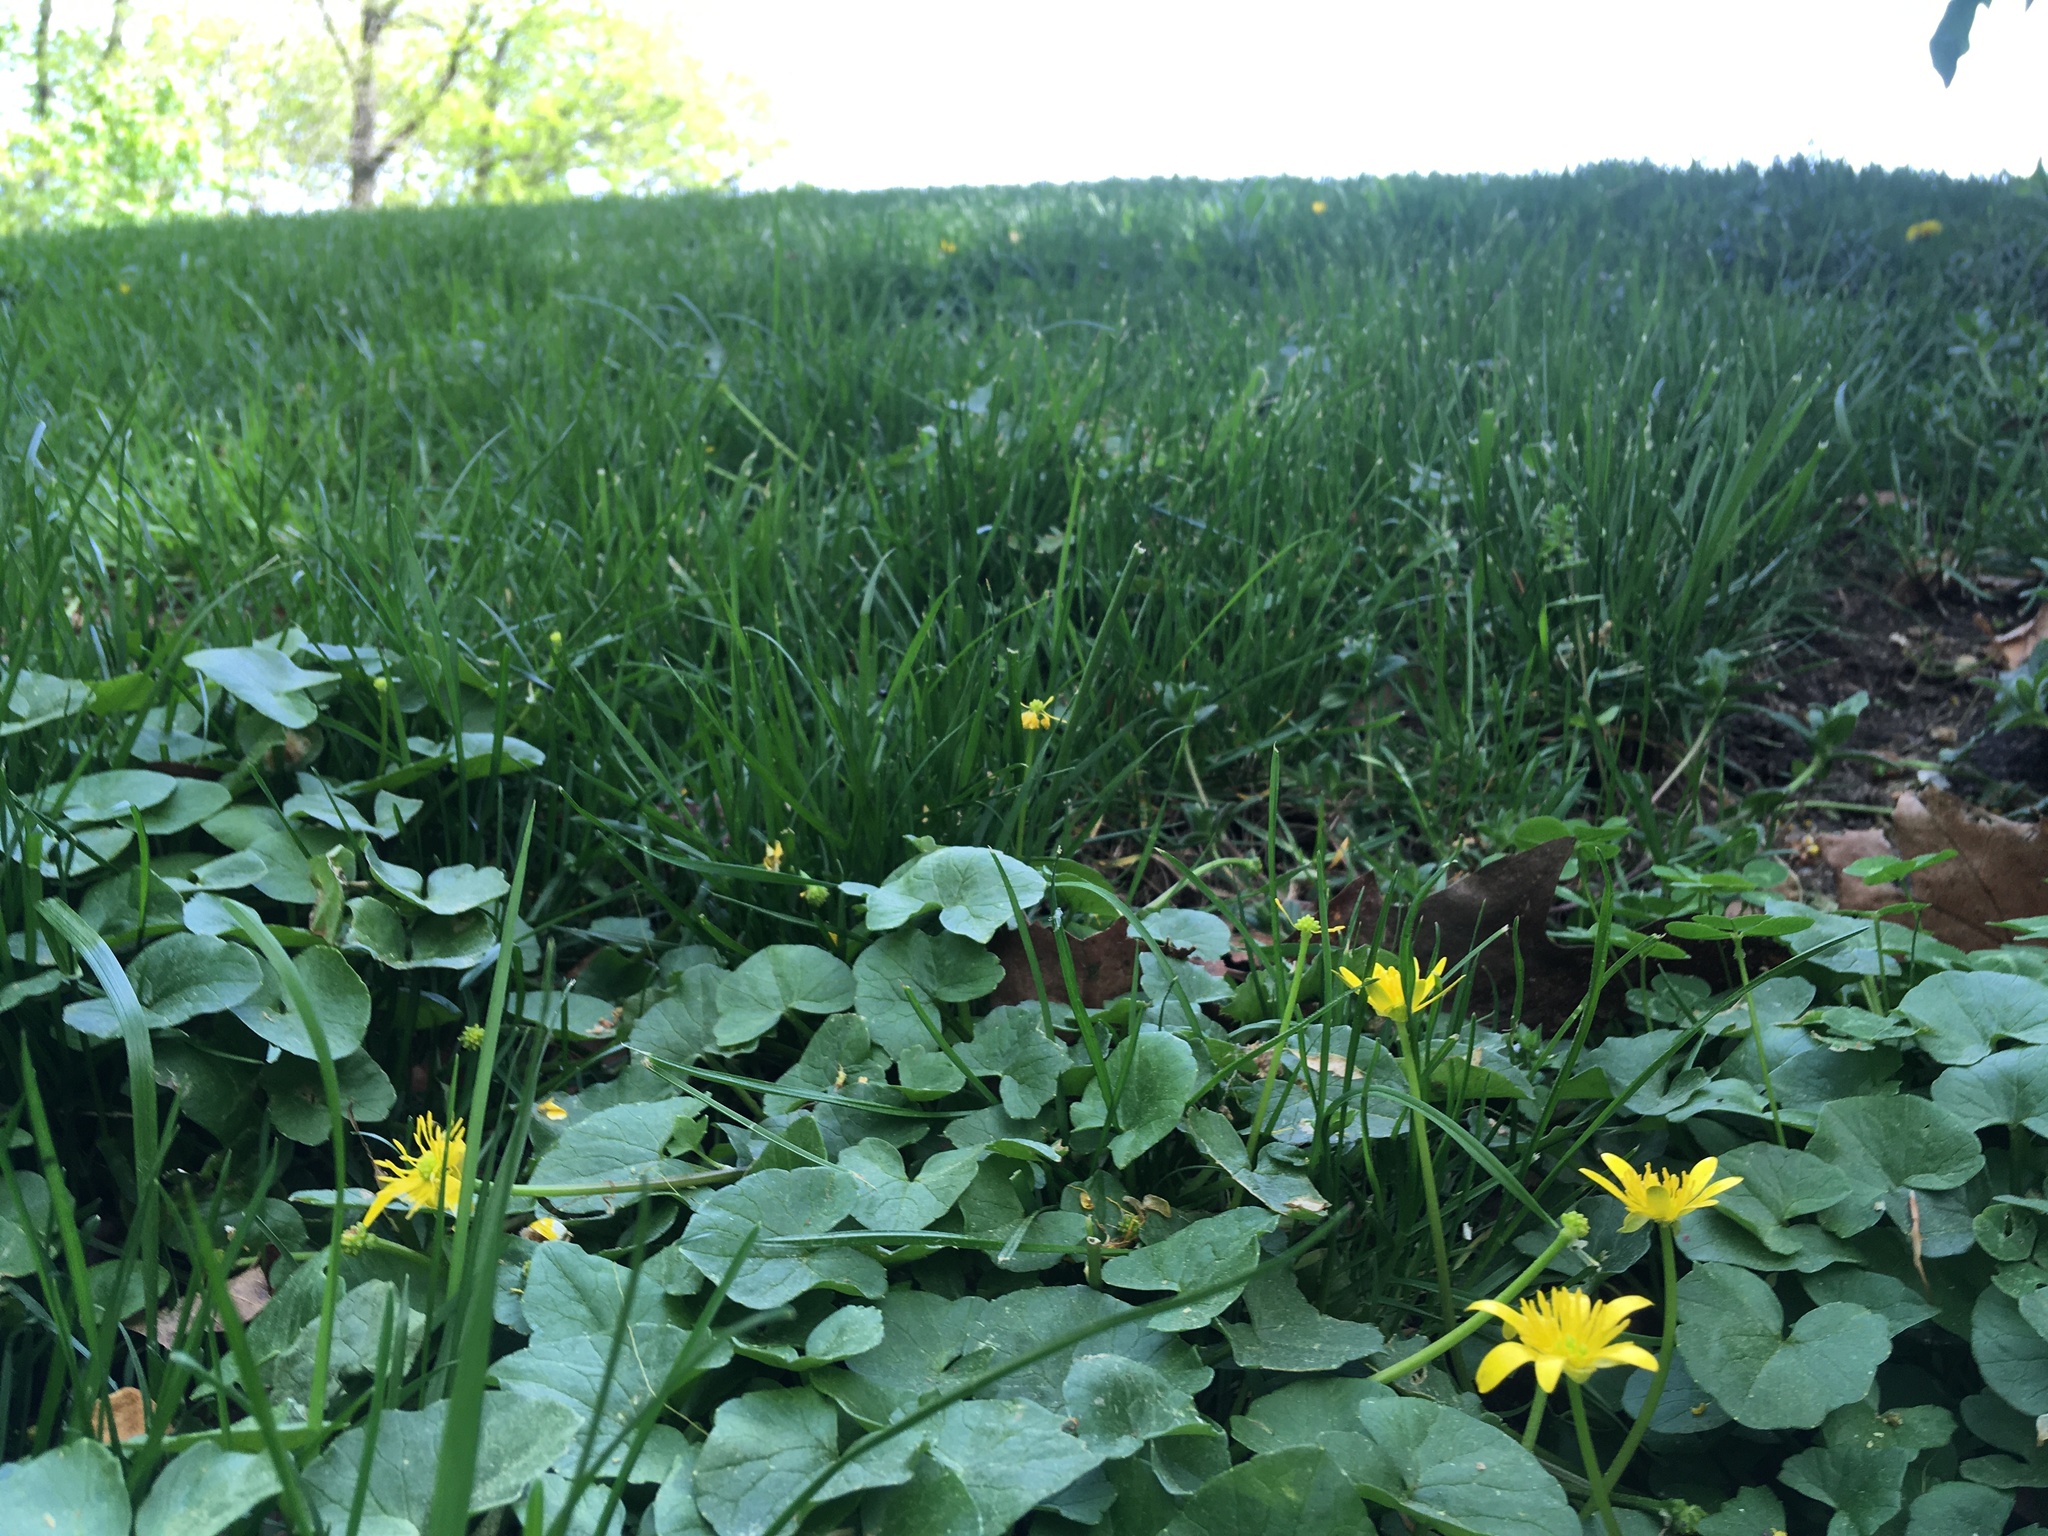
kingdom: Plantae
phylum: Tracheophyta
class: Magnoliopsida
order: Ranunculales
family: Ranunculaceae
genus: Ficaria
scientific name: Ficaria verna
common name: Lesser celandine
